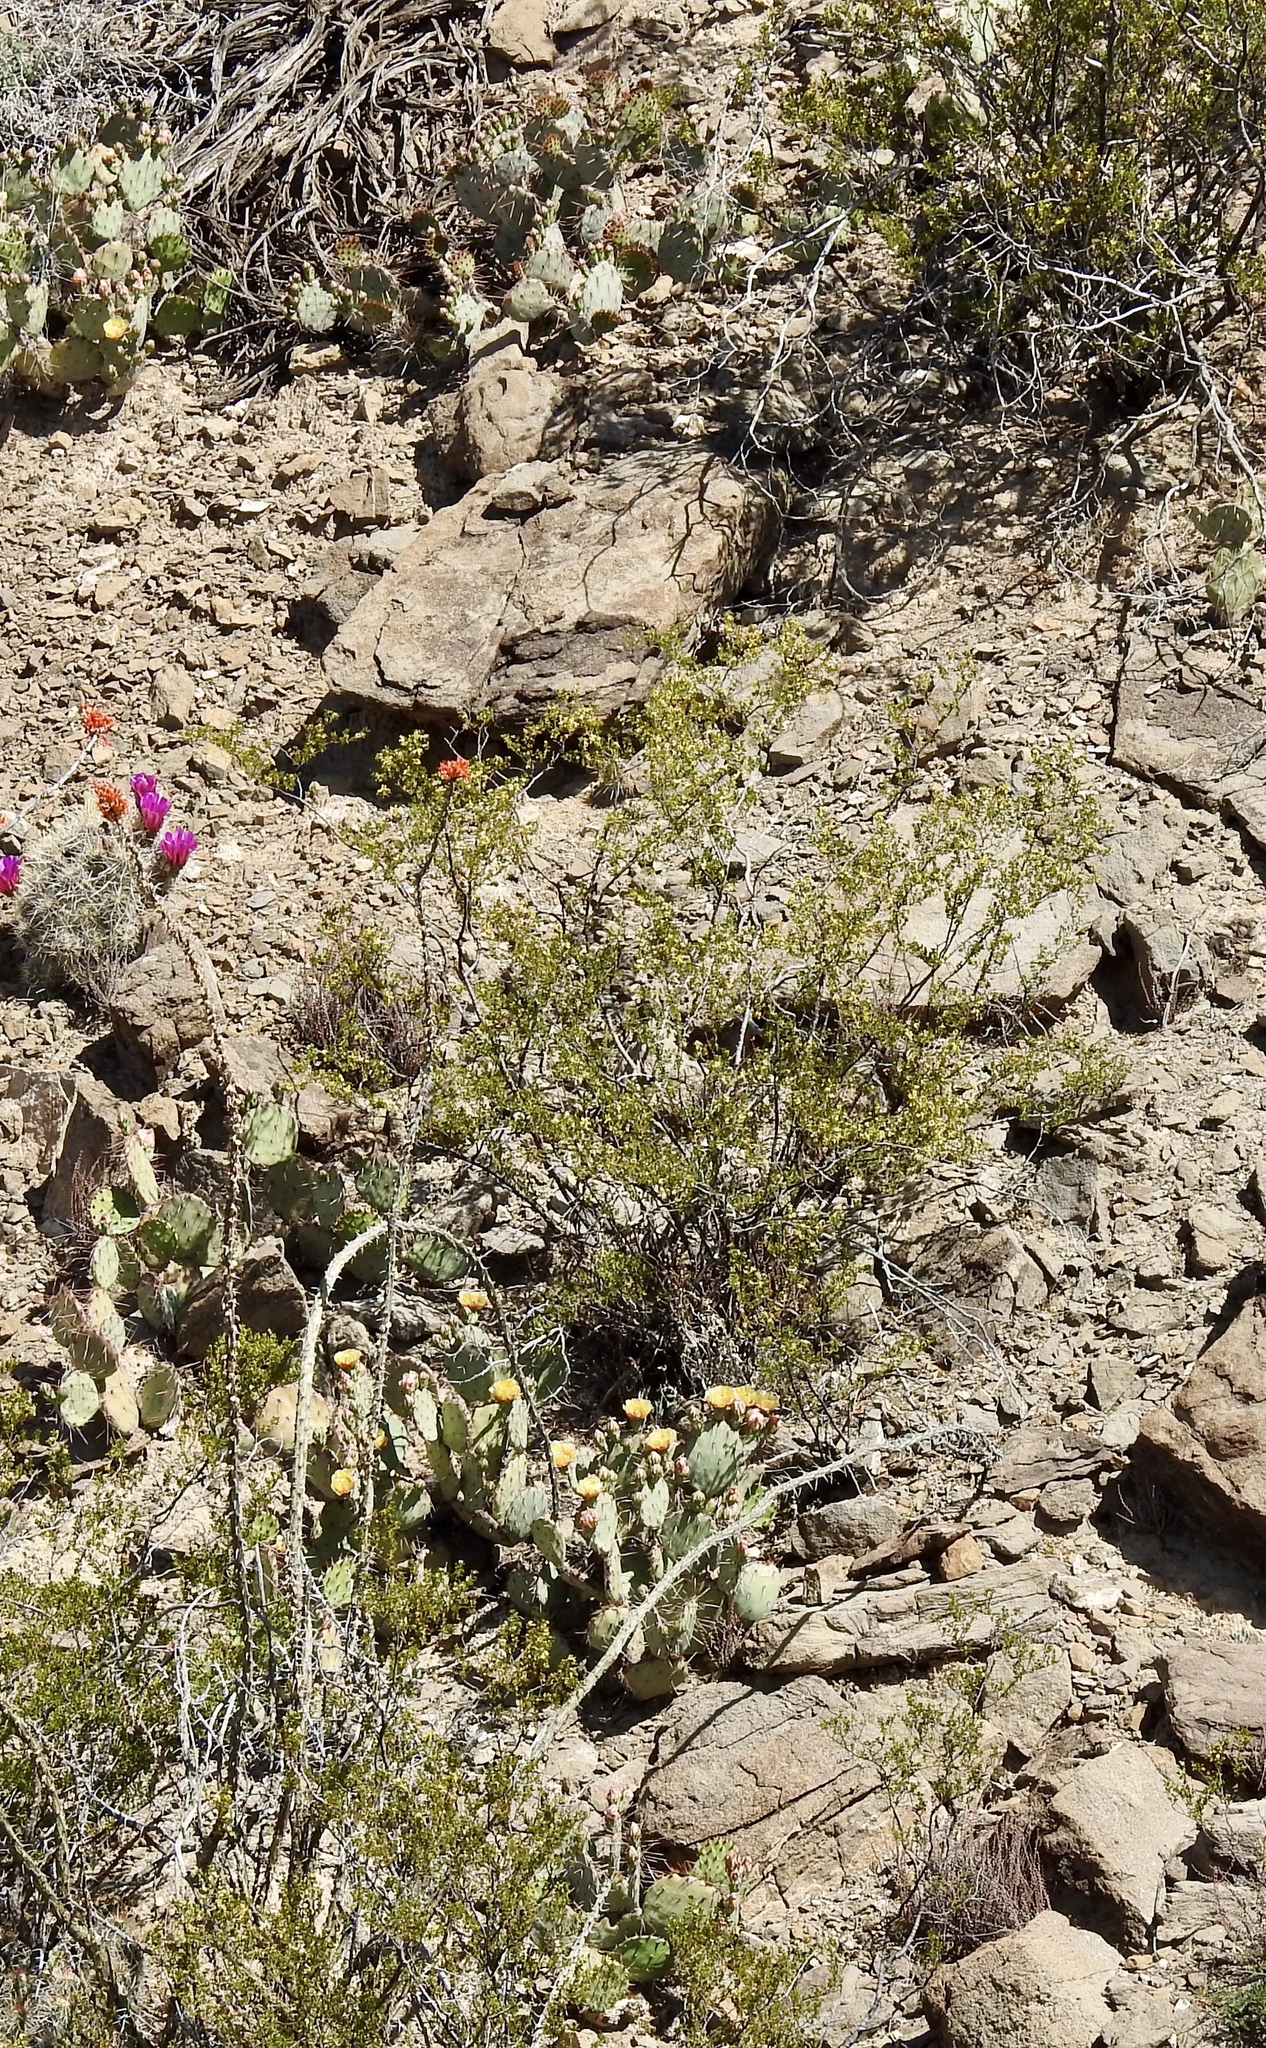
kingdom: Plantae
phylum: Tracheophyta
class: Magnoliopsida
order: Zygophyllales
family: Zygophyllaceae
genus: Larrea
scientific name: Larrea tridentata
